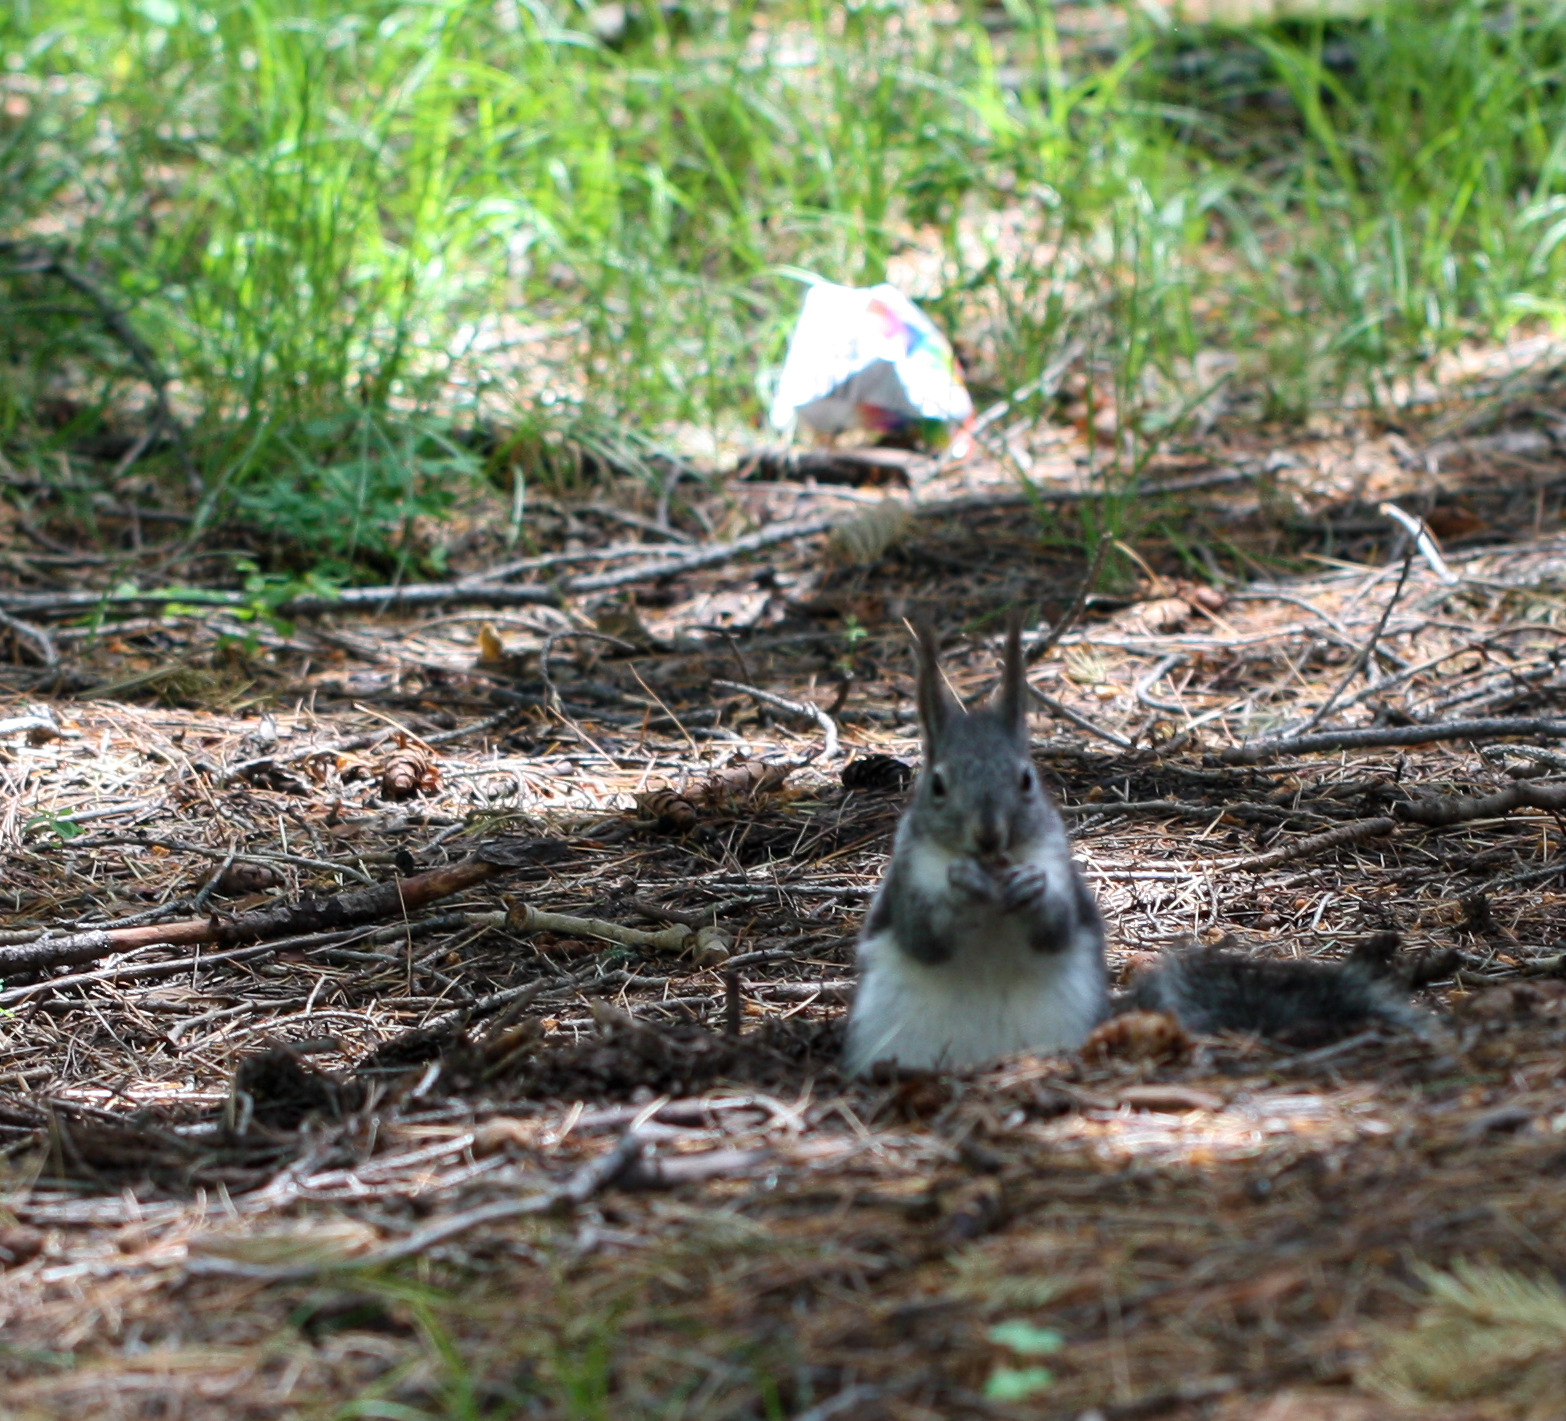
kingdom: Animalia
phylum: Chordata
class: Mammalia
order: Rodentia
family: Sciuridae
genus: Sciurus
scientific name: Sciurus aberti
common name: Abert's squirrel
